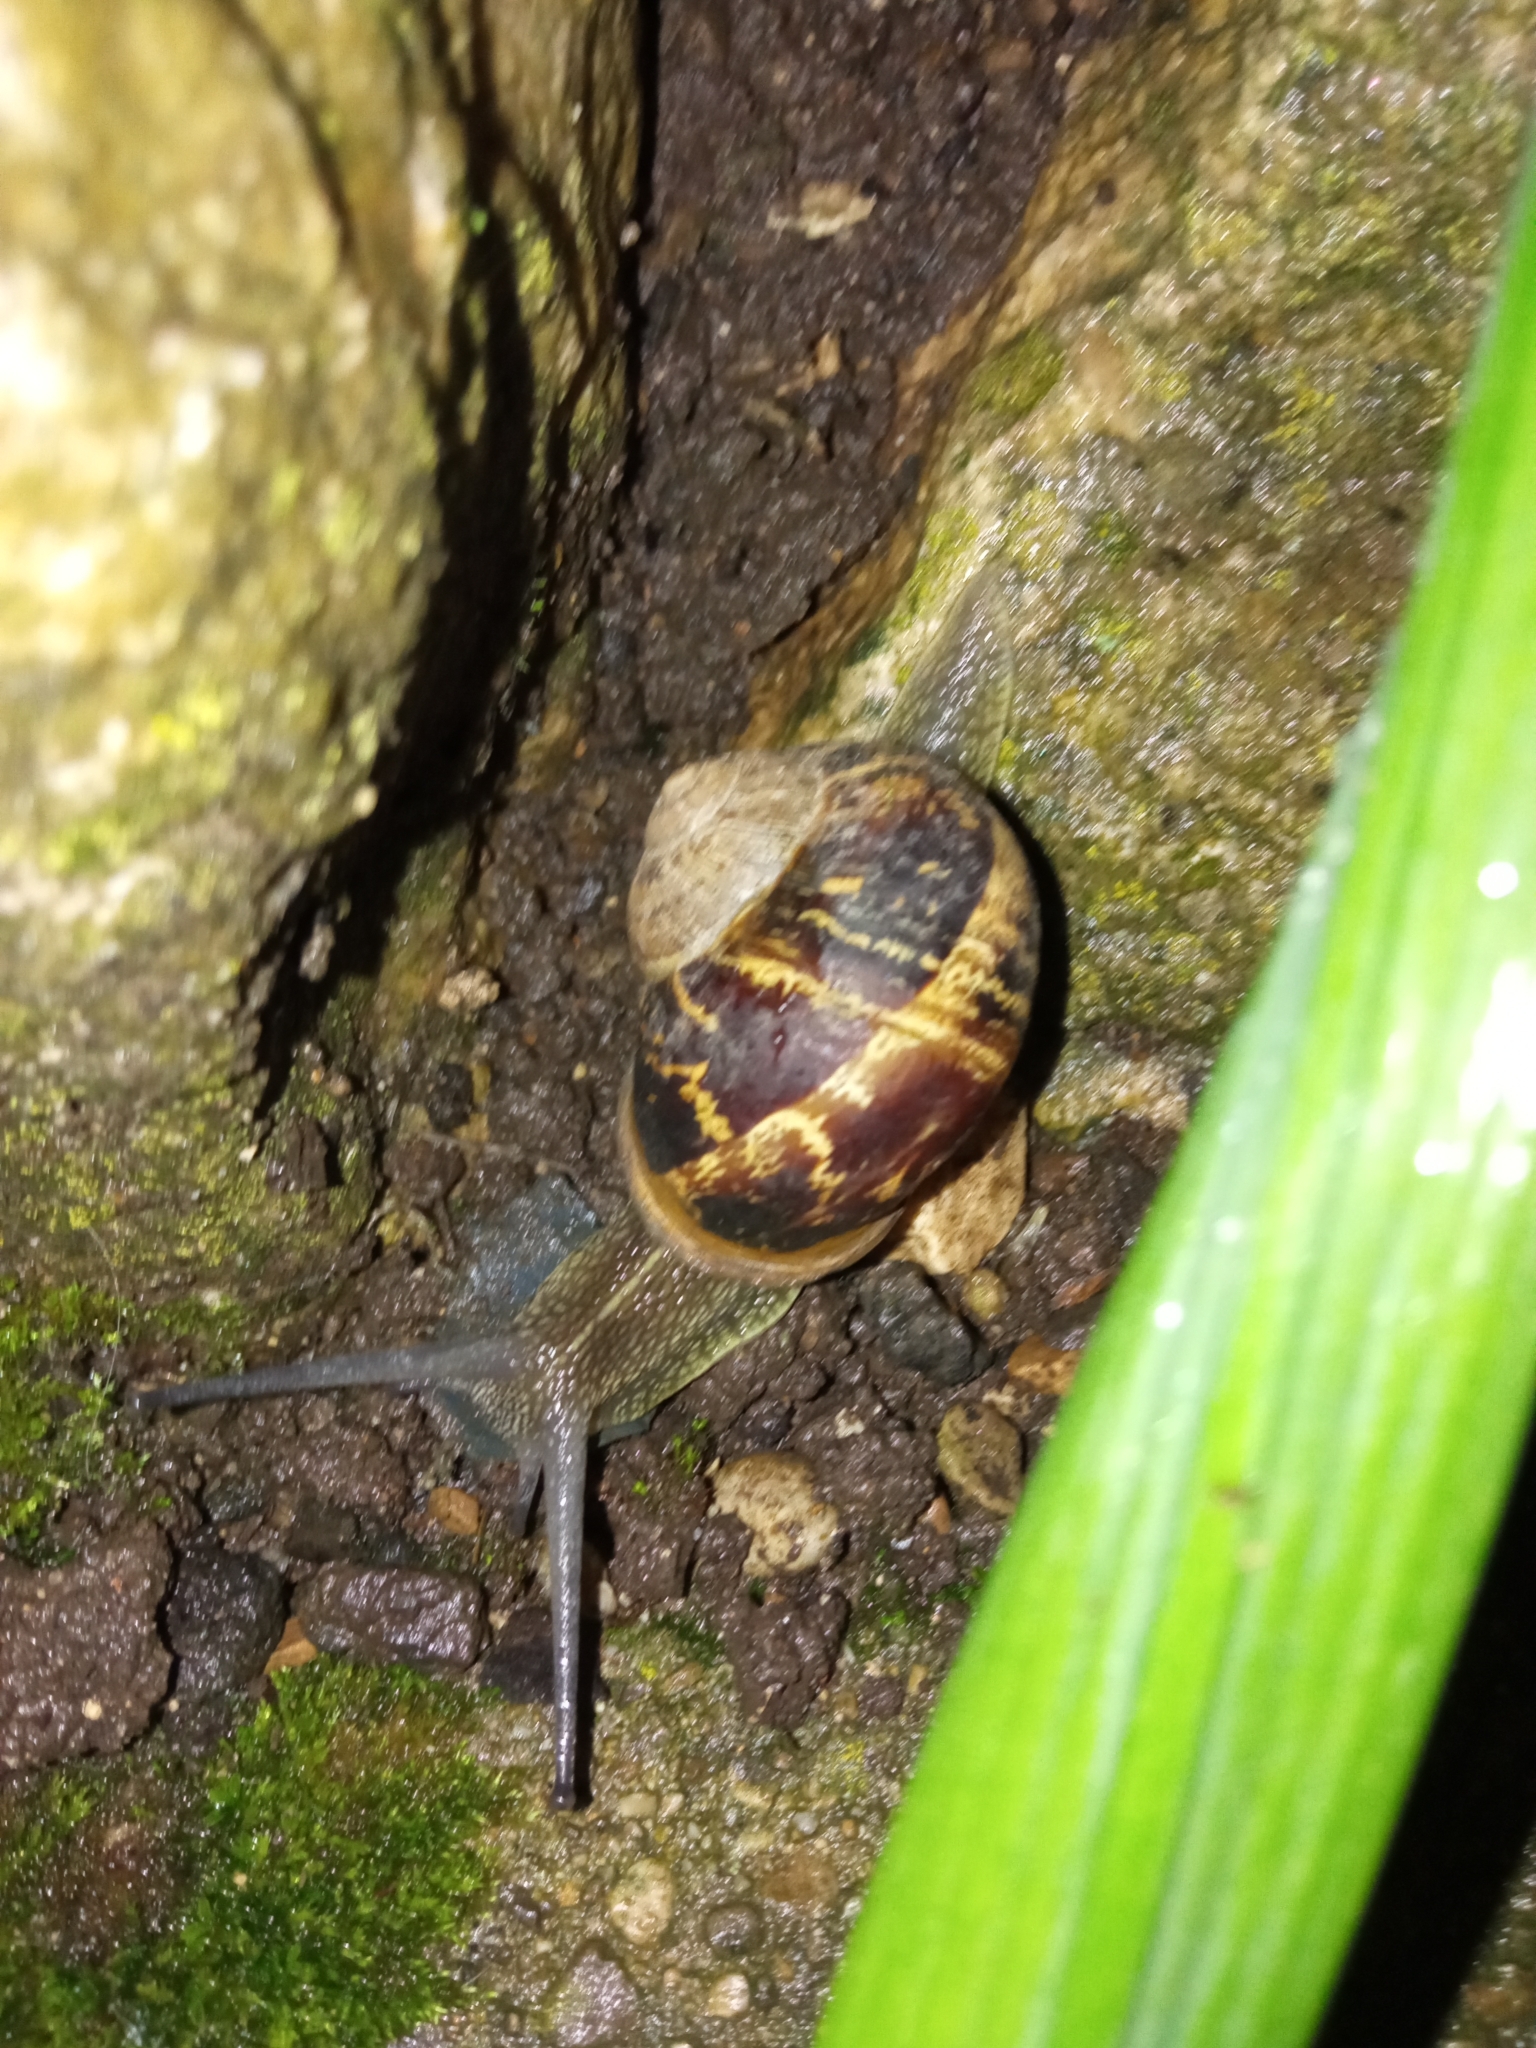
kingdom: Animalia
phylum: Mollusca
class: Gastropoda
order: Stylommatophora
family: Helicidae
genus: Cornu
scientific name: Cornu aspersum
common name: Brown garden snail
